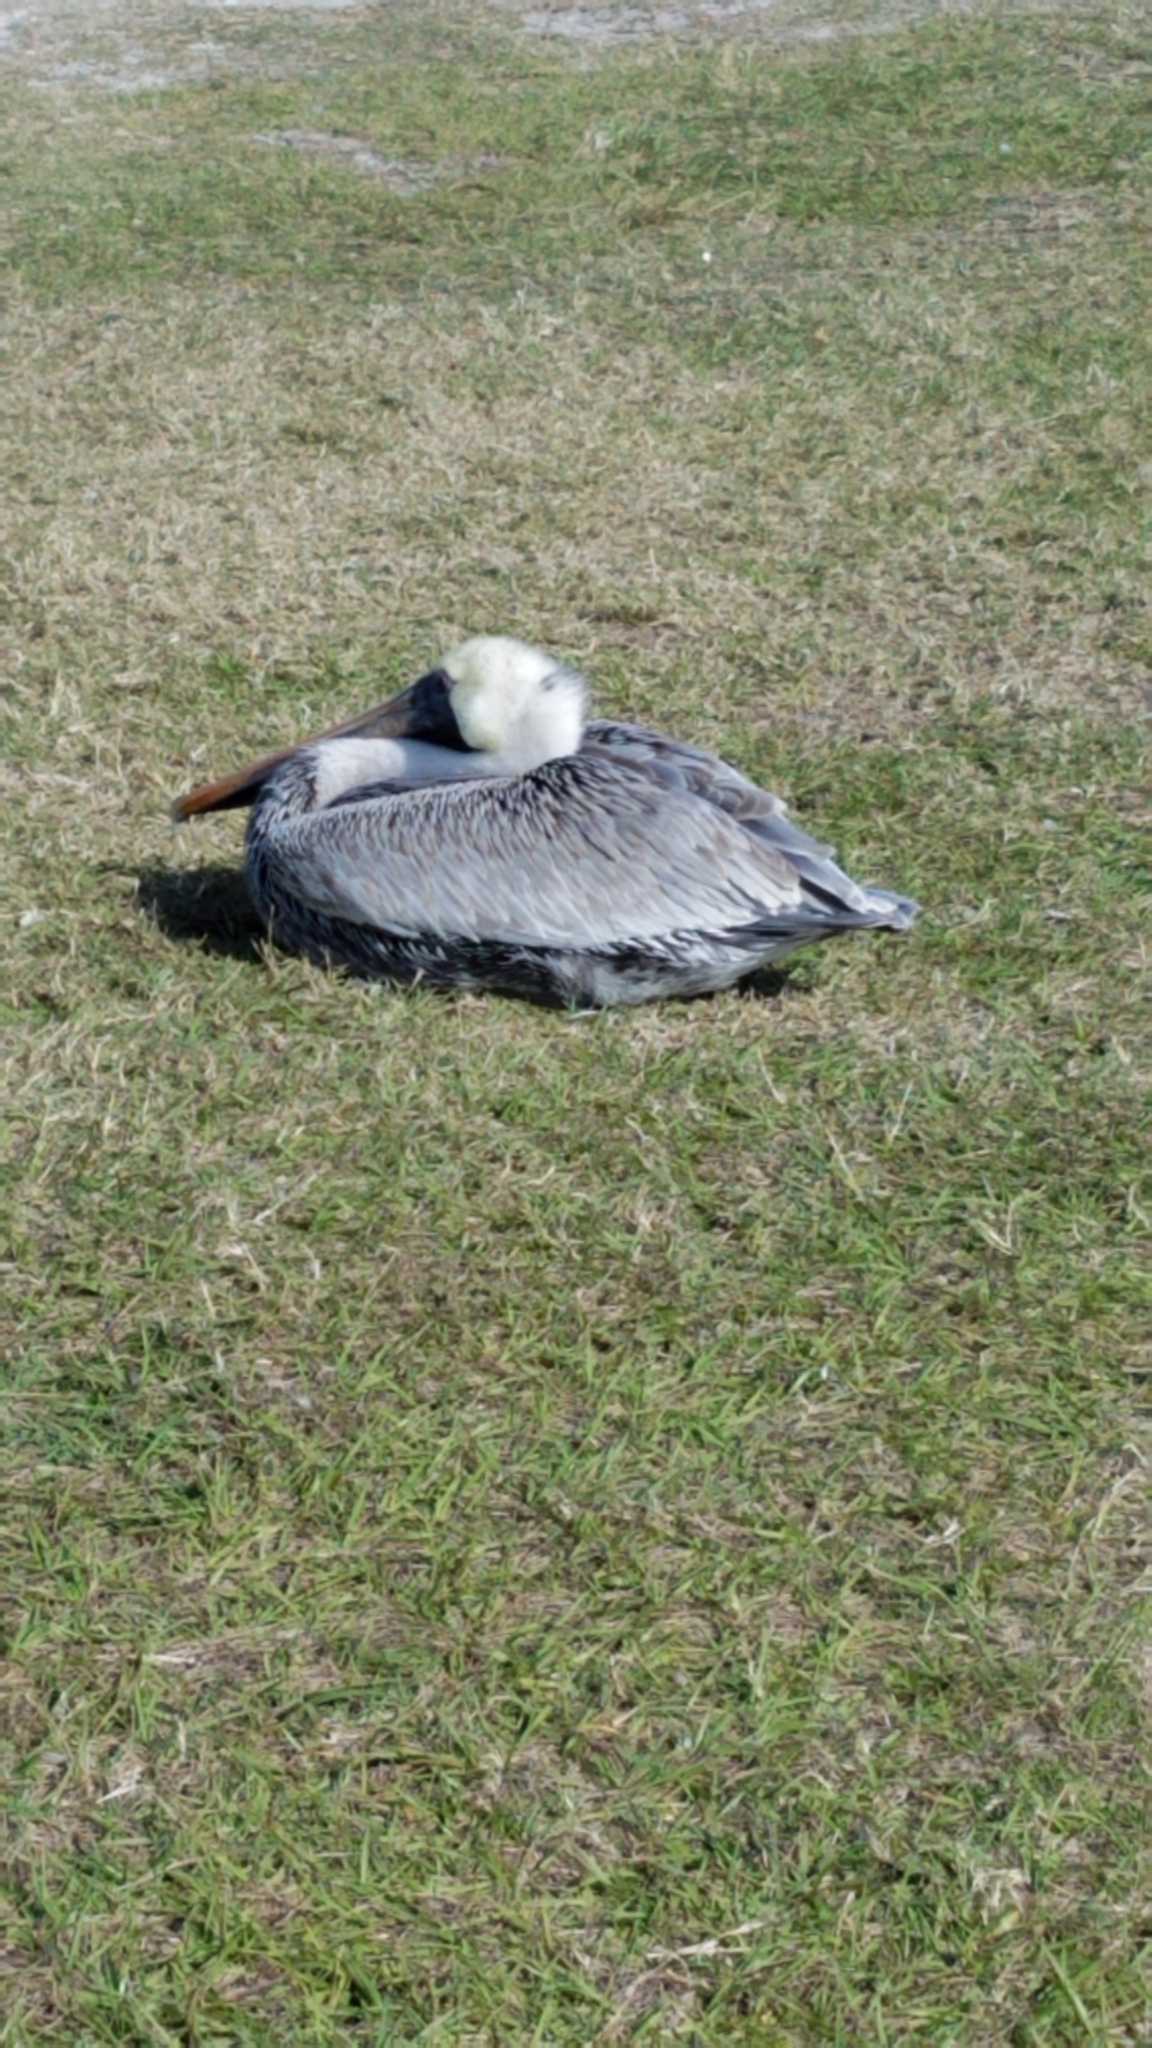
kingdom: Animalia
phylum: Chordata
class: Aves
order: Pelecaniformes
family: Pelecanidae
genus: Pelecanus
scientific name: Pelecanus occidentalis
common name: Brown pelican
